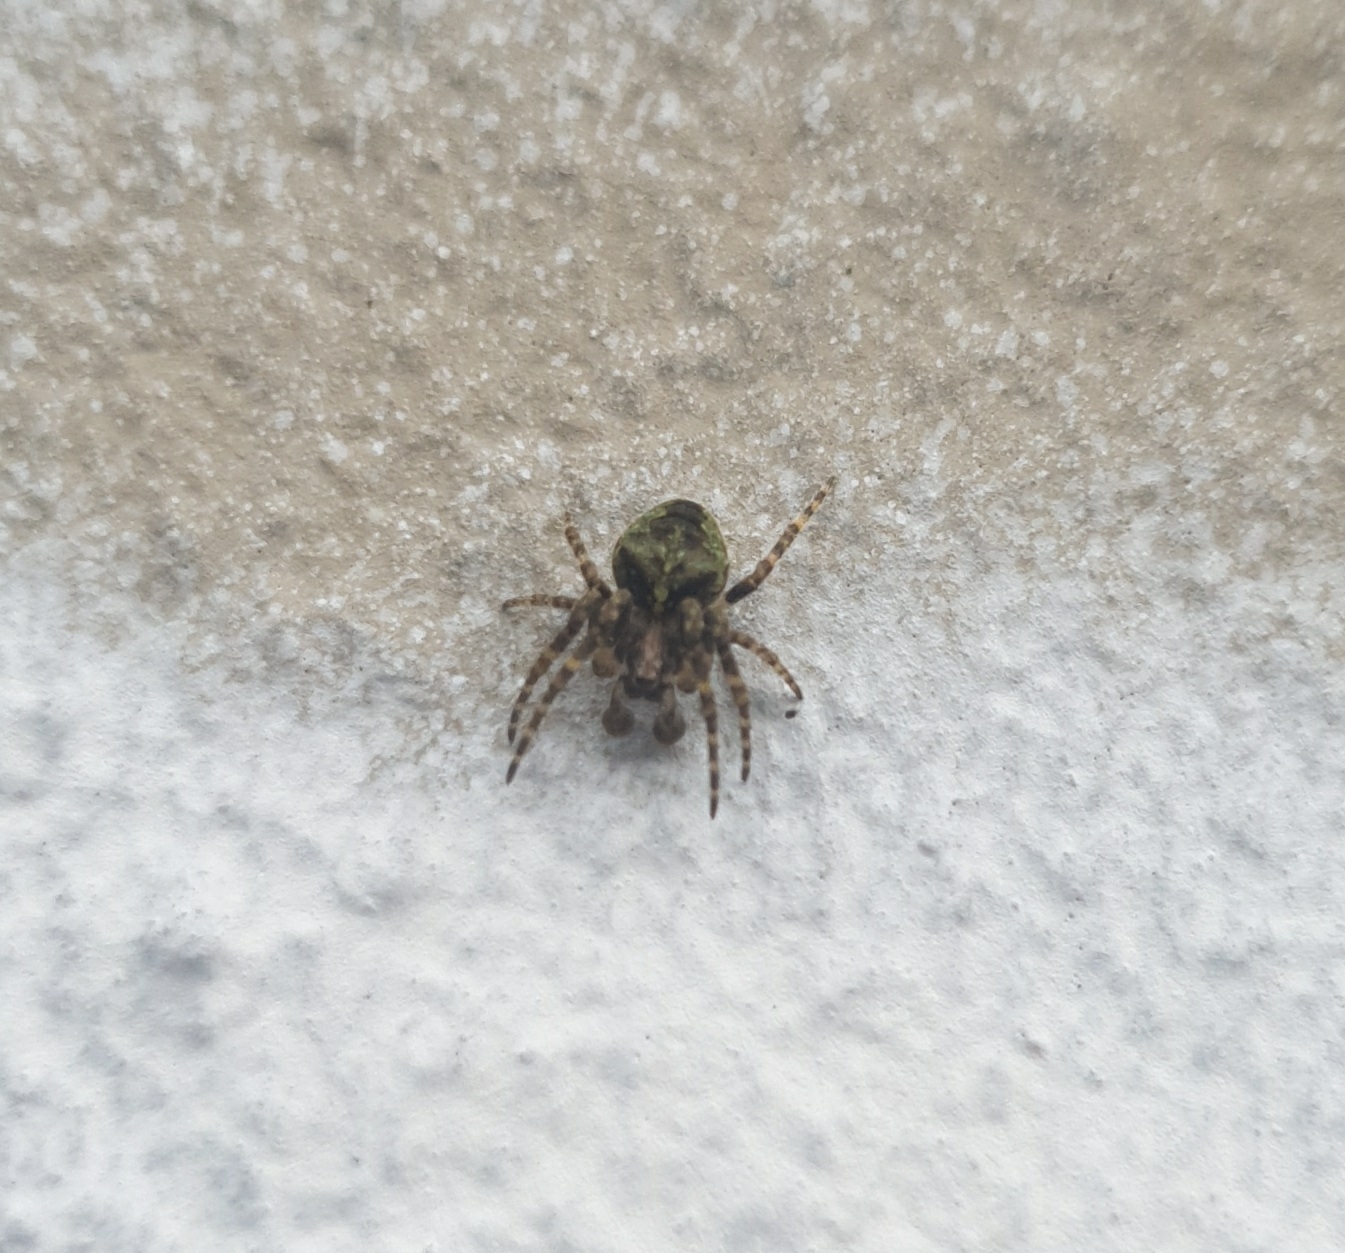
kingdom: Animalia
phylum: Arthropoda
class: Arachnida
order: Araneae
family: Araneidae
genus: Gibbaranea
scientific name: Gibbaranea gibbosa
